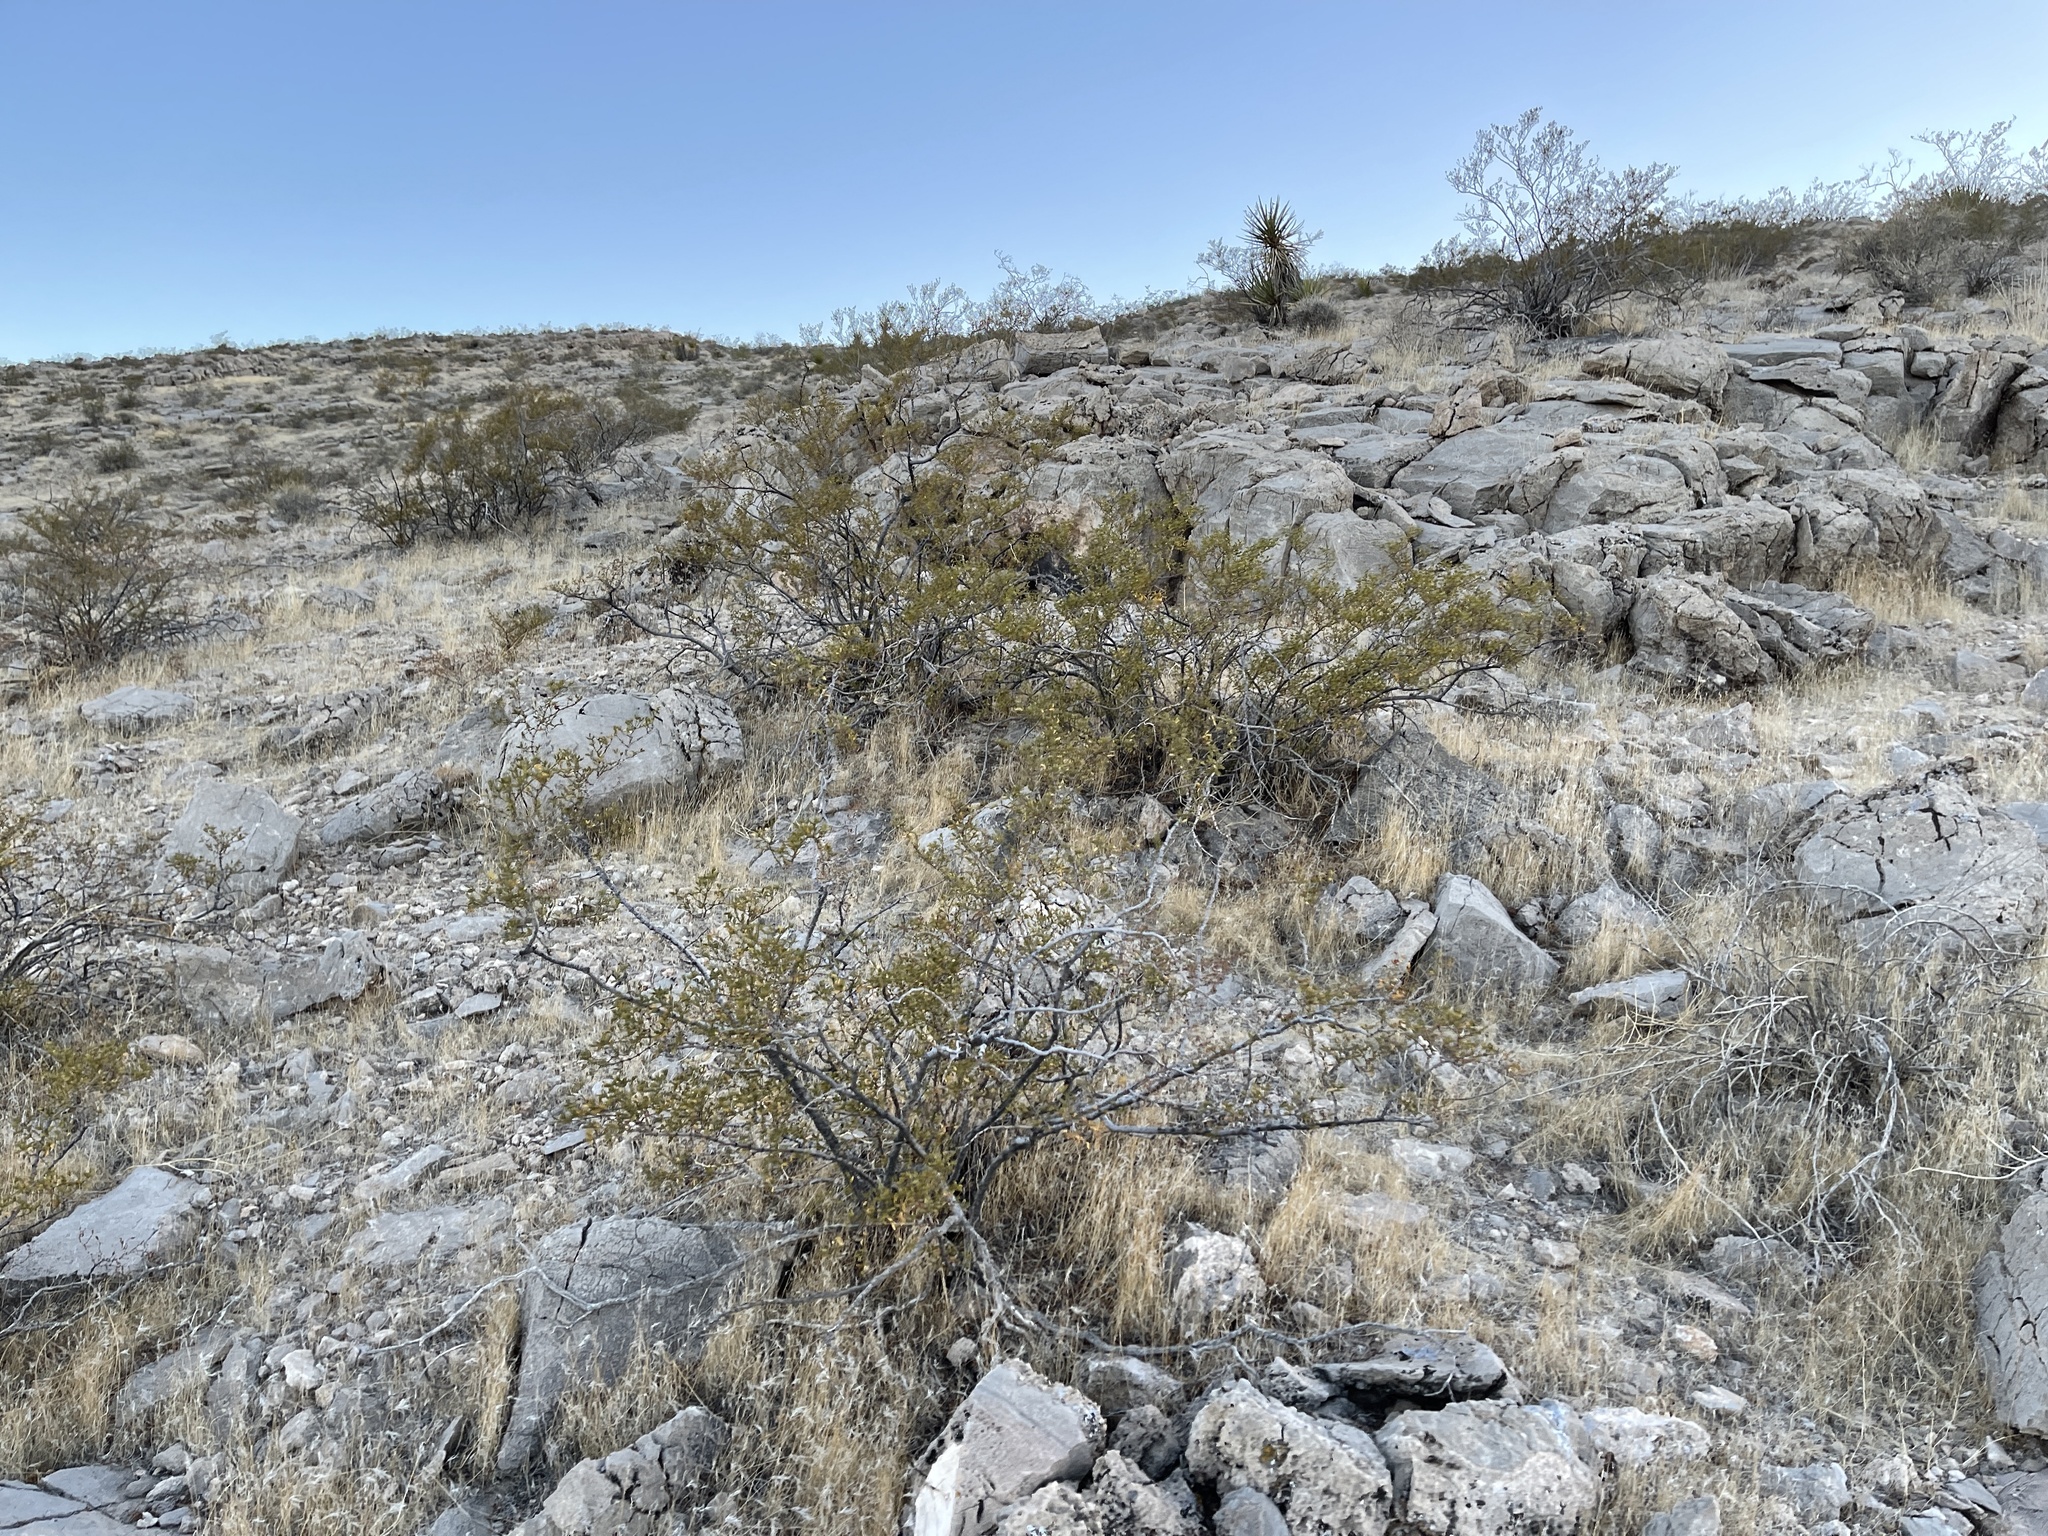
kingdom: Plantae
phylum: Tracheophyta
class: Magnoliopsida
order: Zygophyllales
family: Zygophyllaceae
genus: Larrea
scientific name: Larrea tridentata
